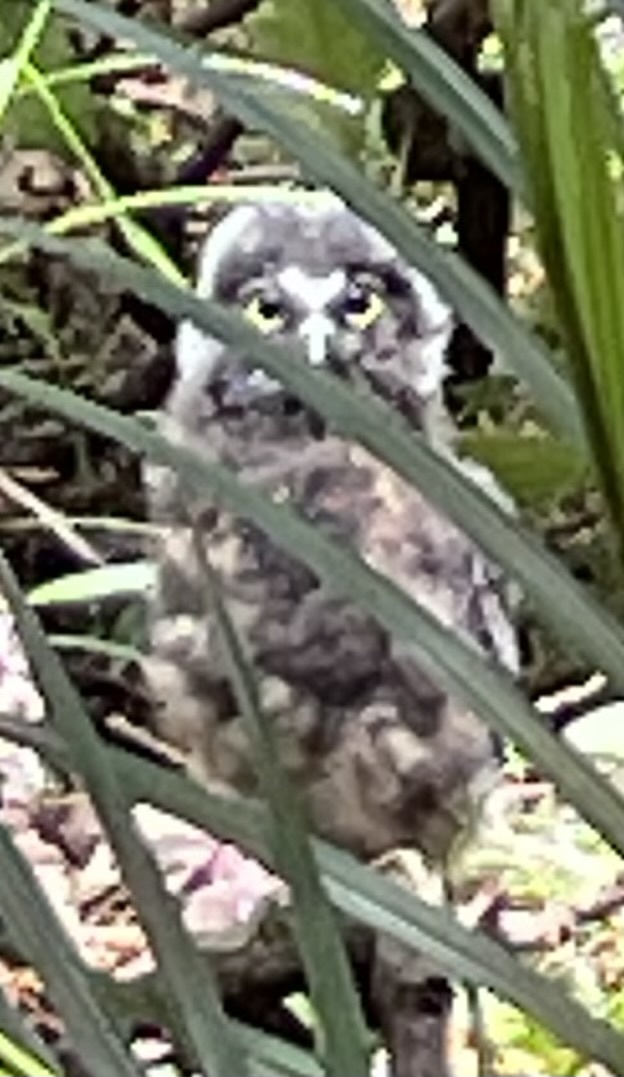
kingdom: Animalia
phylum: Chordata
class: Aves
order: Strigiformes
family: Strigidae
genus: Ninox
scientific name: Ninox novaeseelandiae
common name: Morepork
